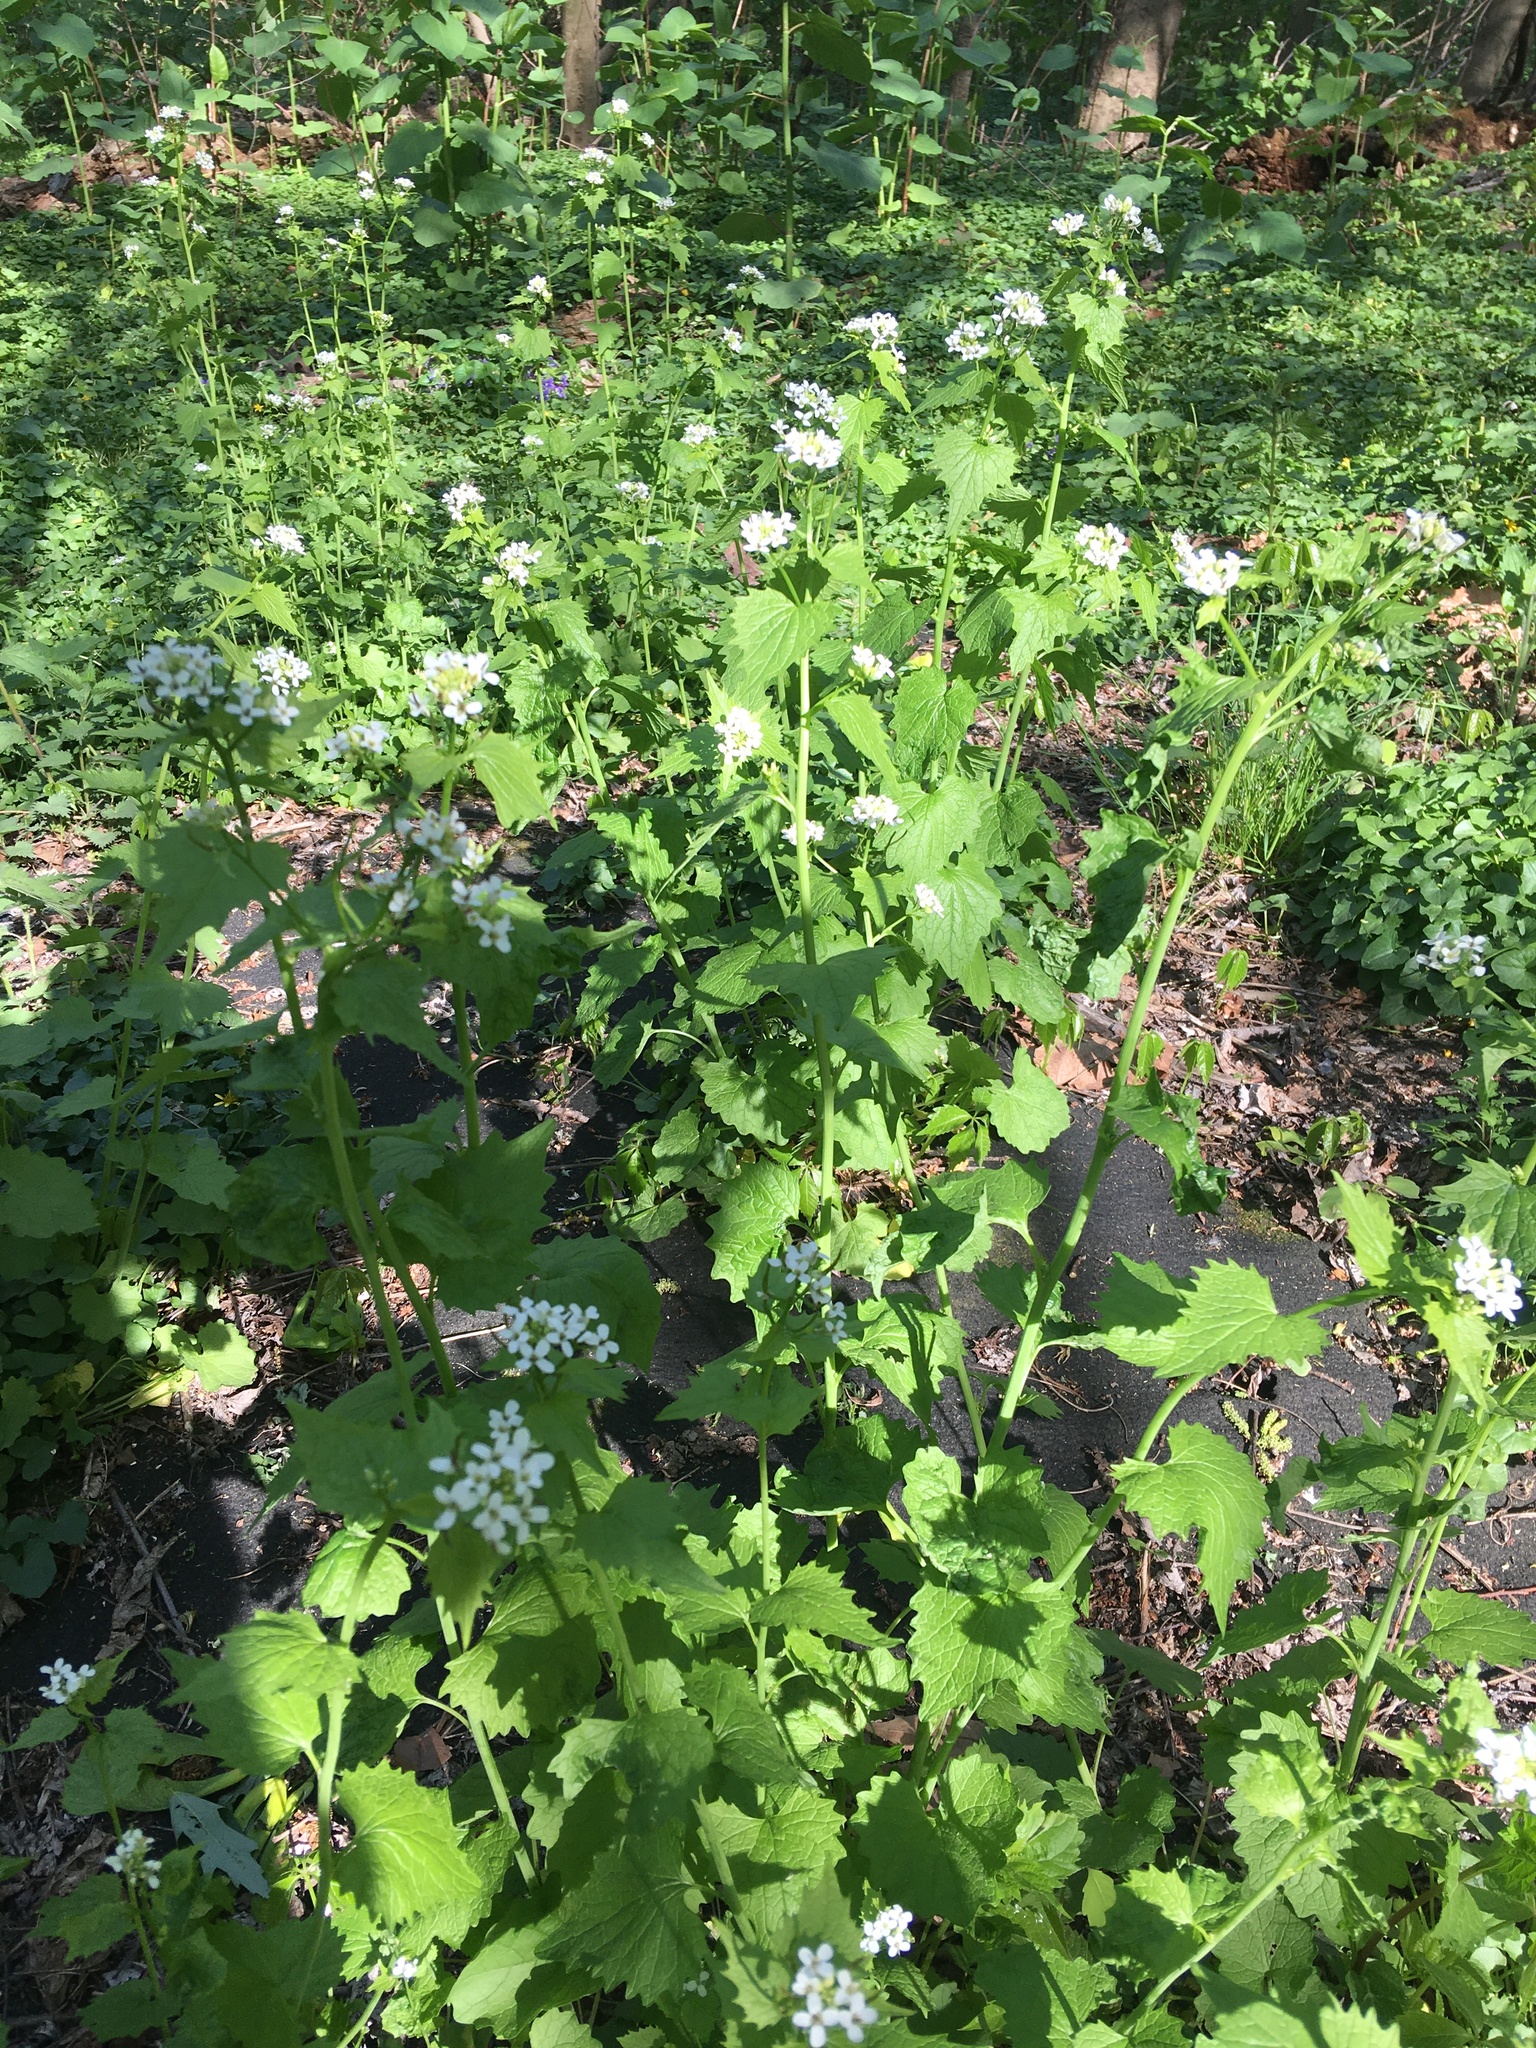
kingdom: Plantae
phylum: Tracheophyta
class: Magnoliopsida
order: Brassicales
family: Brassicaceae
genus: Alliaria
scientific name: Alliaria petiolata
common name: Garlic mustard
